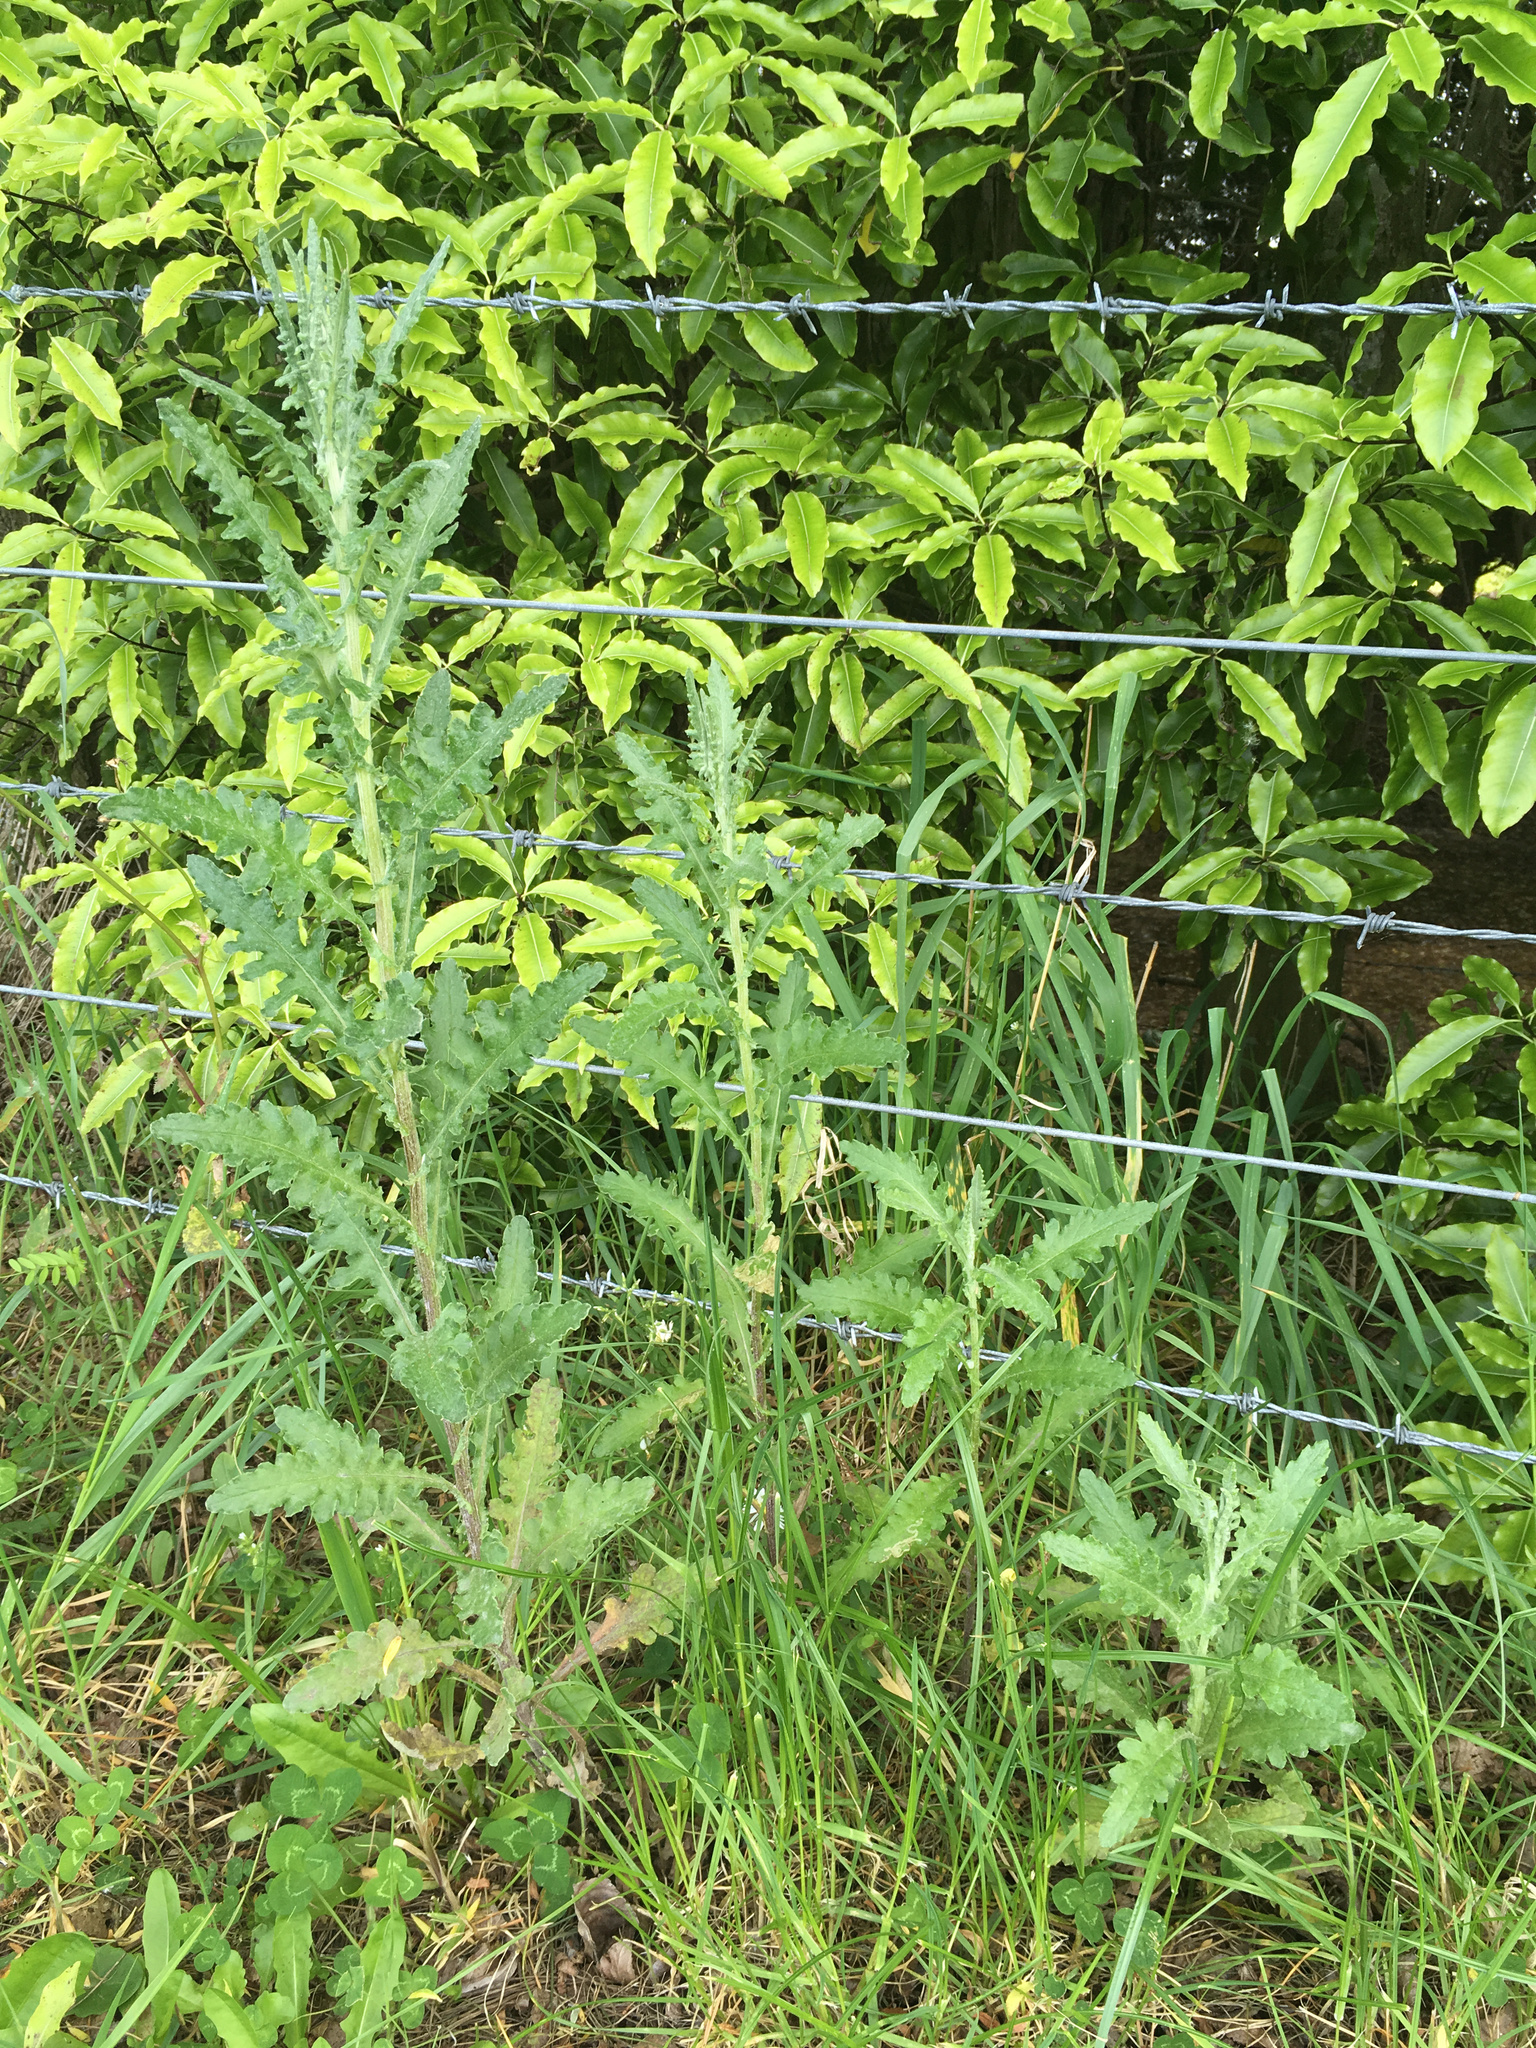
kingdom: Plantae
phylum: Tracheophyta
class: Magnoliopsida
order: Asterales
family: Asteraceae
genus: Senecio
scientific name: Senecio glomeratus
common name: Cutleaf burnweed
